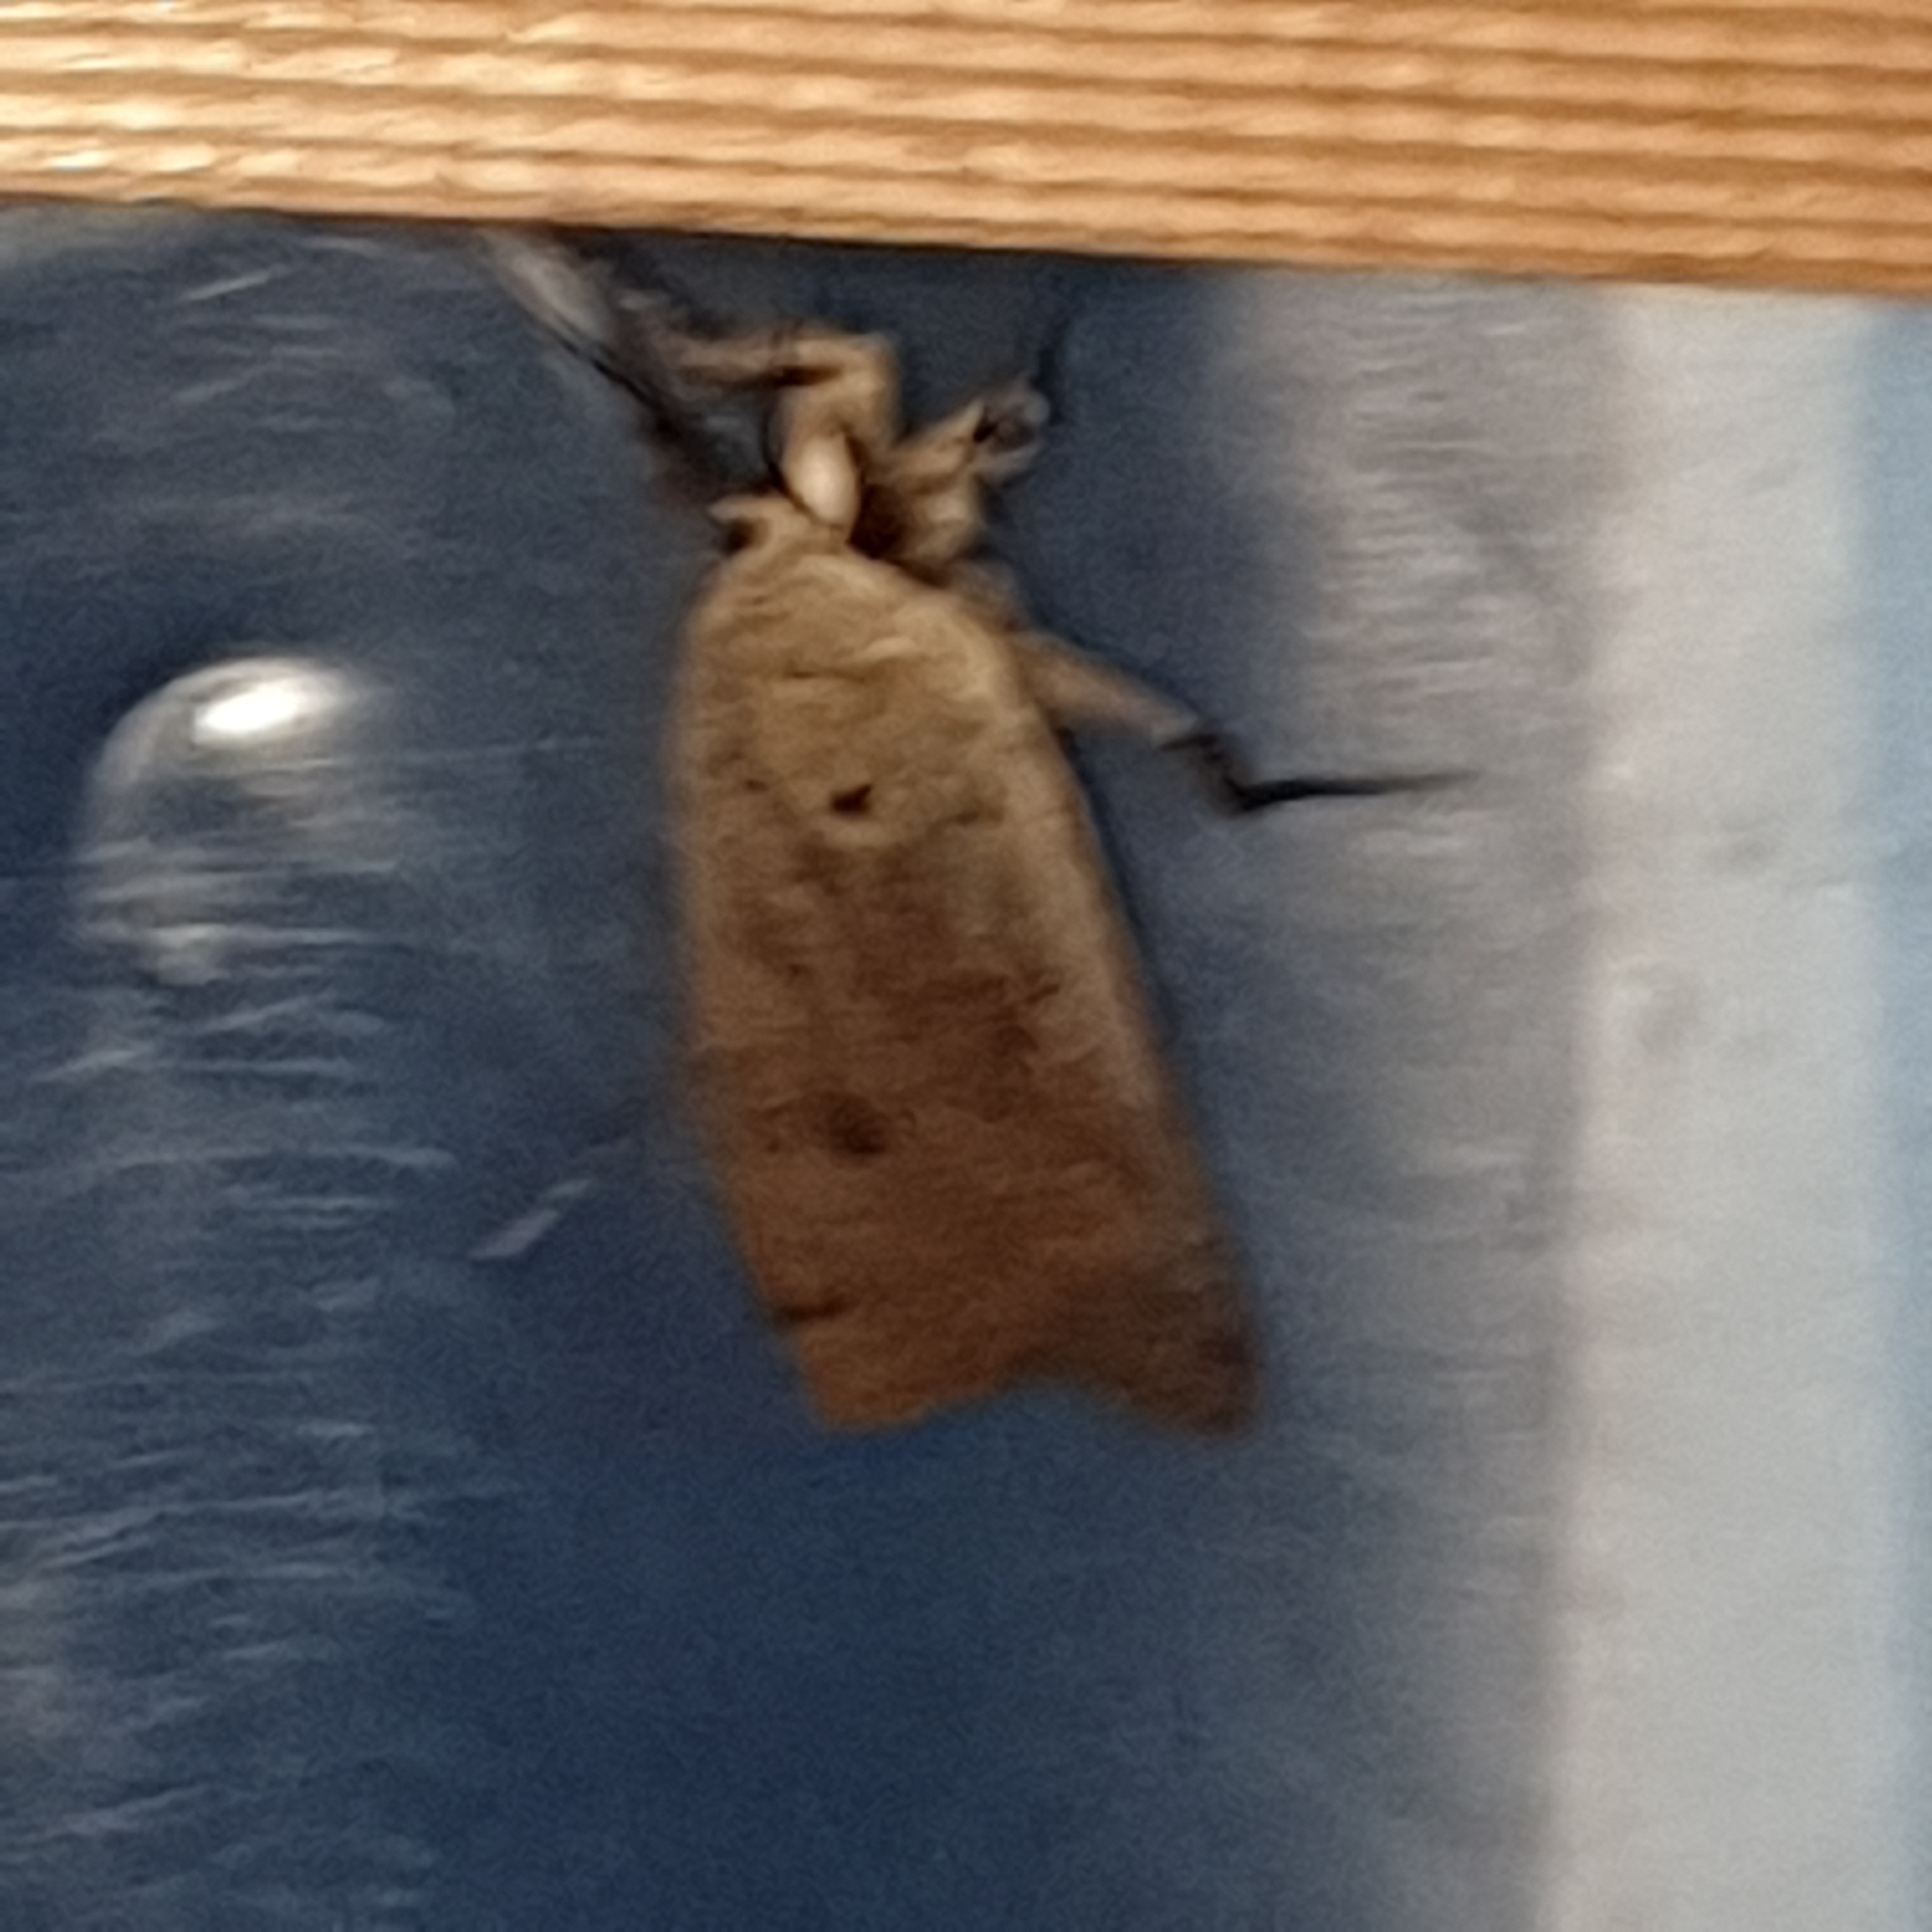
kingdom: Animalia
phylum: Arthropoda
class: Insecta
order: Lepidoptera
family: Noctuidae
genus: Noctua
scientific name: Noctua pronuba
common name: Large yellow underwing
